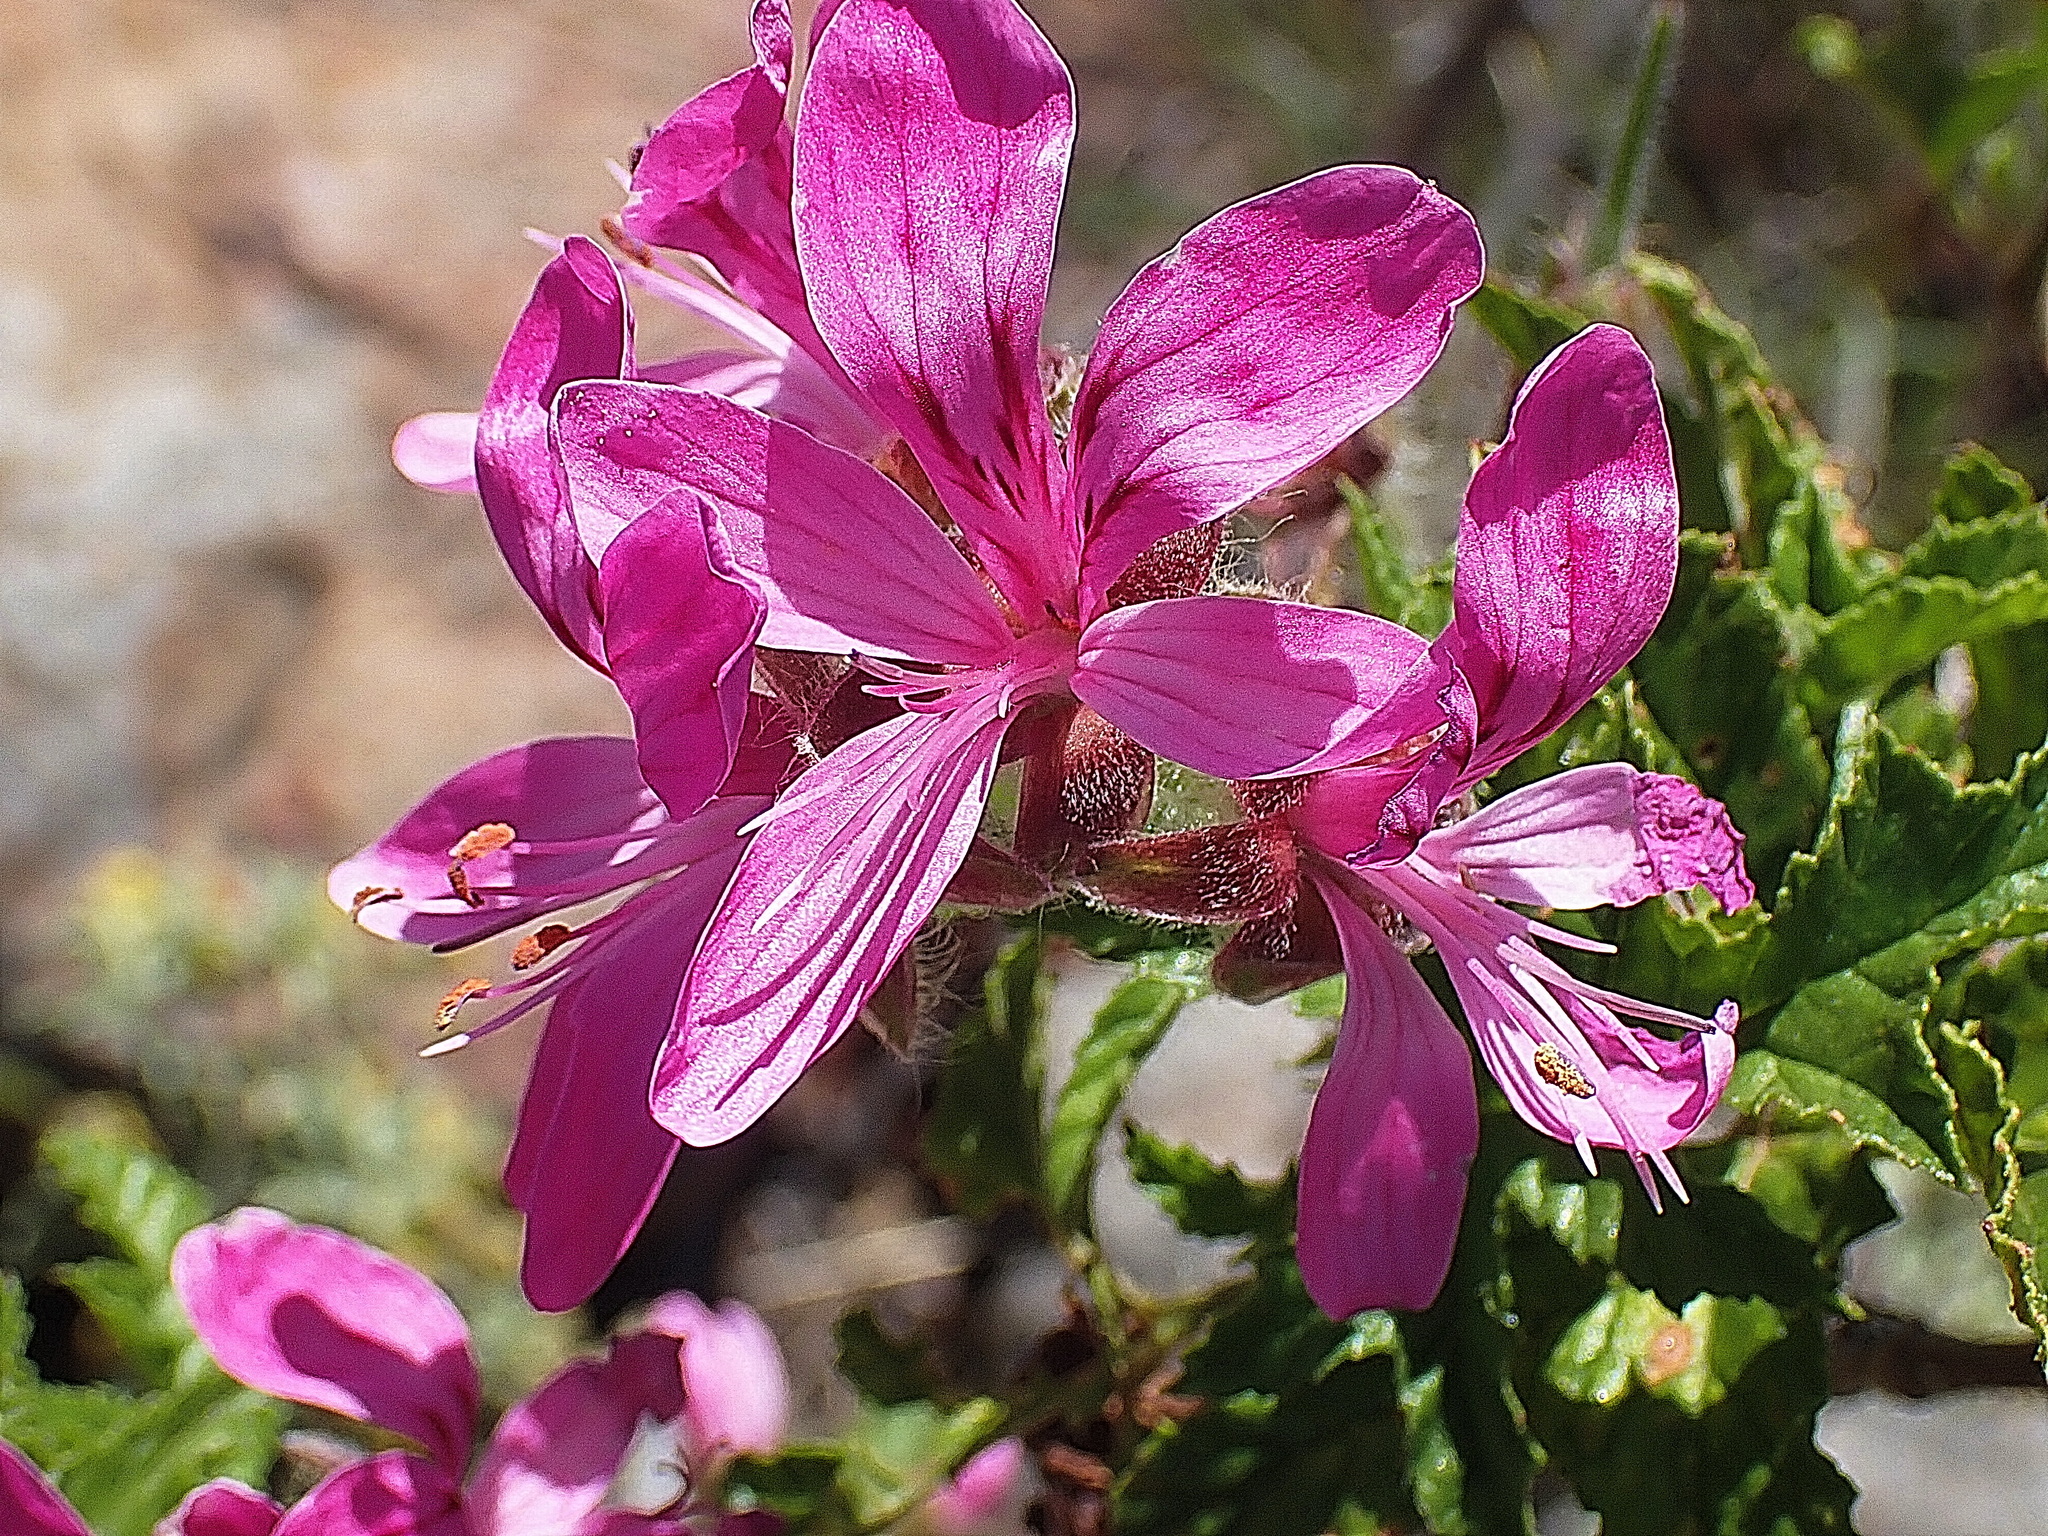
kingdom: Plantae
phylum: Tracheophyta
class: Magnoliopsida
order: Geraniales
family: Geraniaceae
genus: Pelargonium
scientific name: Pelargonium glutinosum
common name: Pheasant-foot geranium
